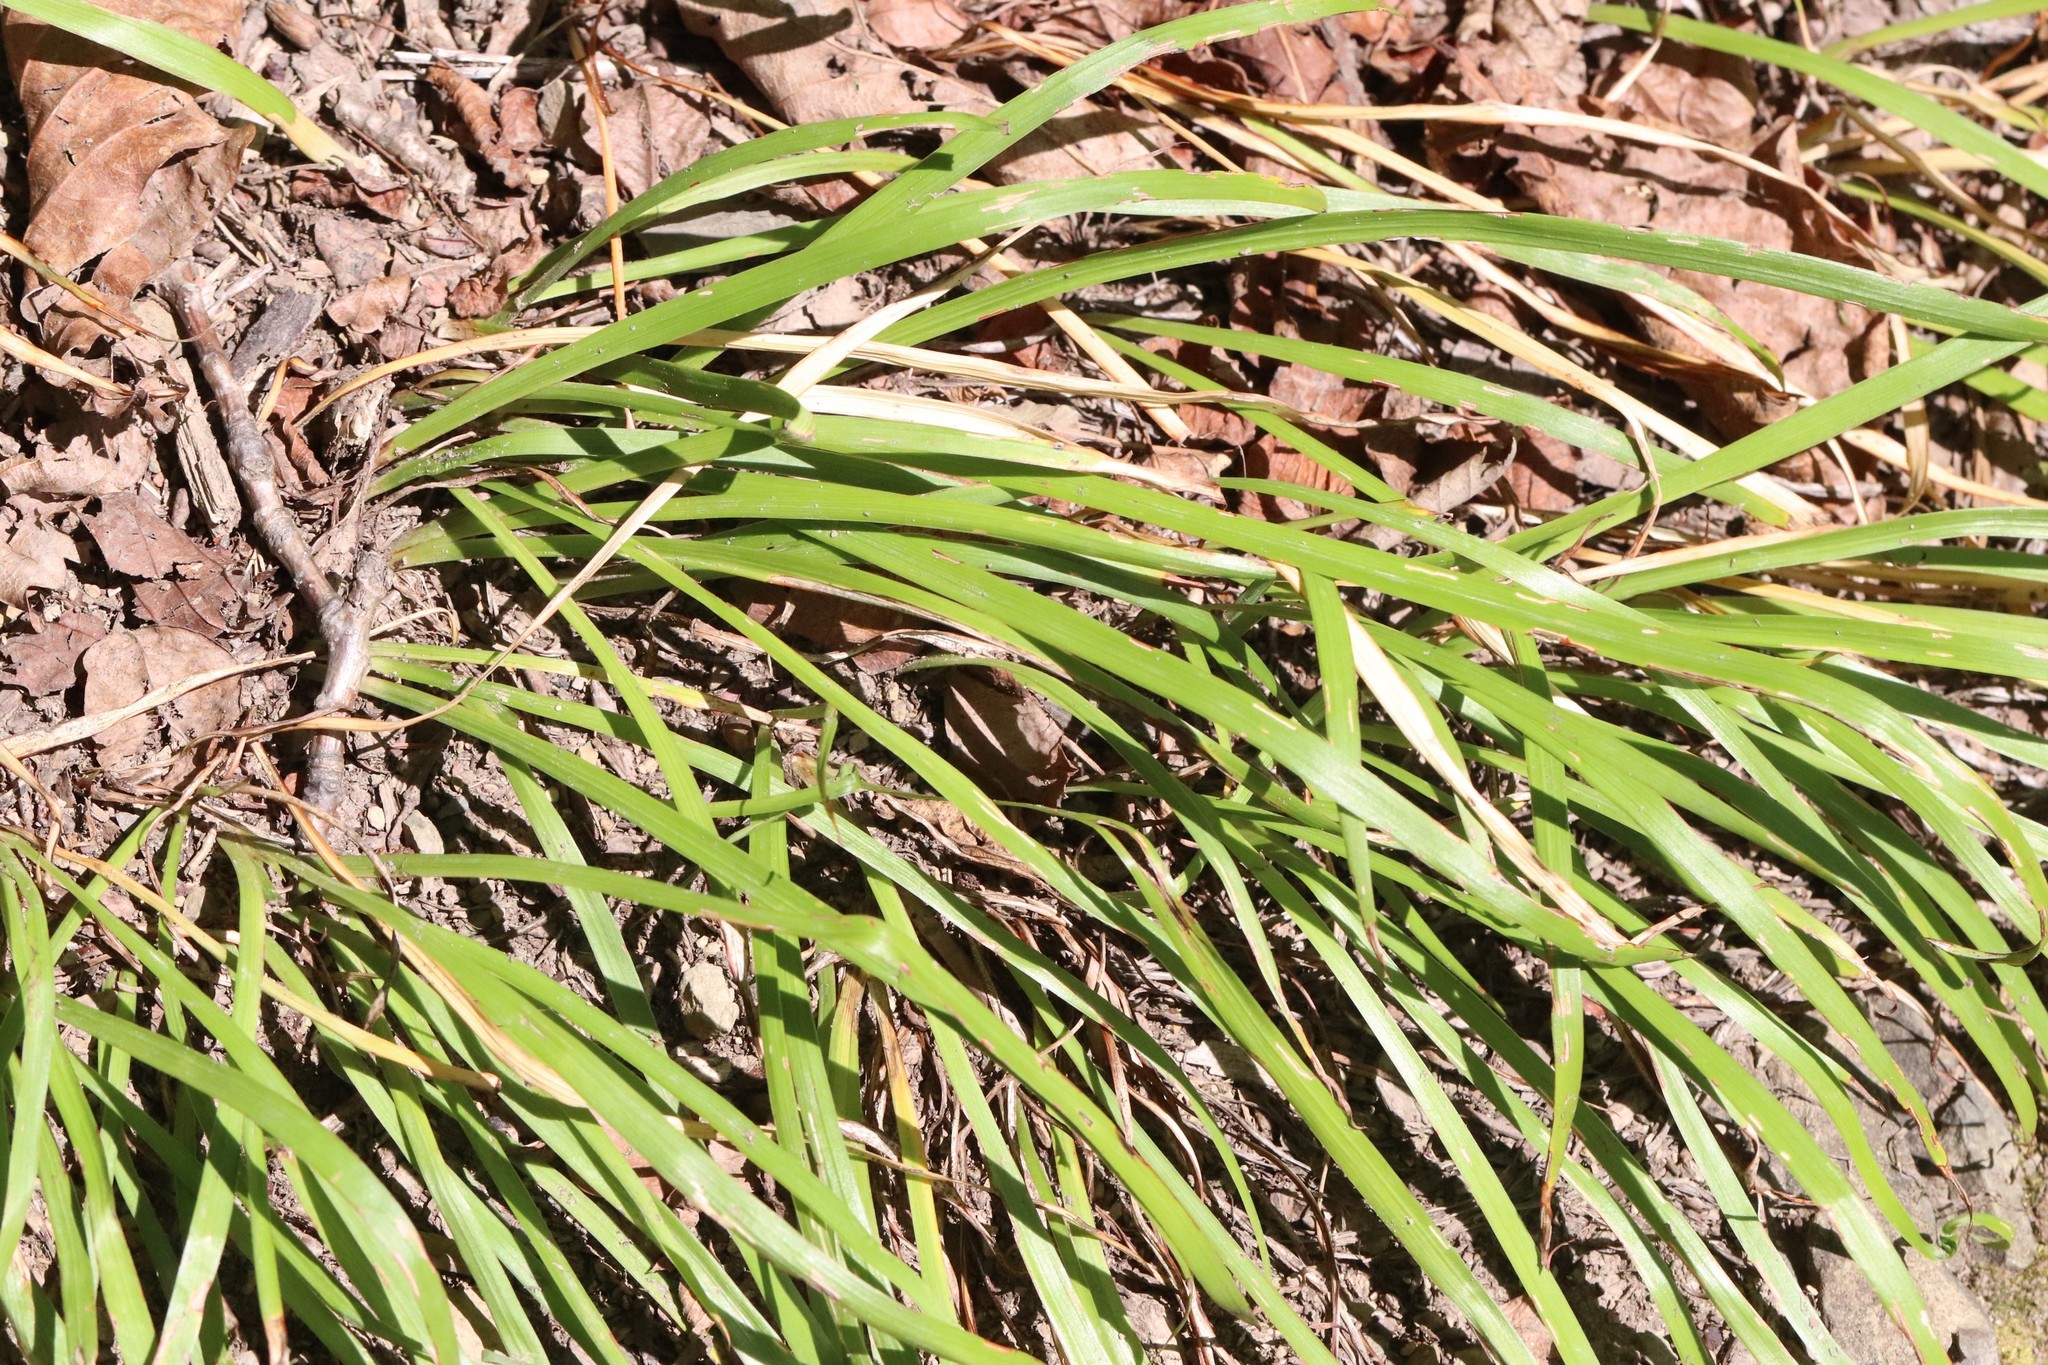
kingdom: Plantae
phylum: Tracheophyta
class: Liliopsida
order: Asparagales
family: Iridaceae
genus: Iris
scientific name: Iris uniflora
